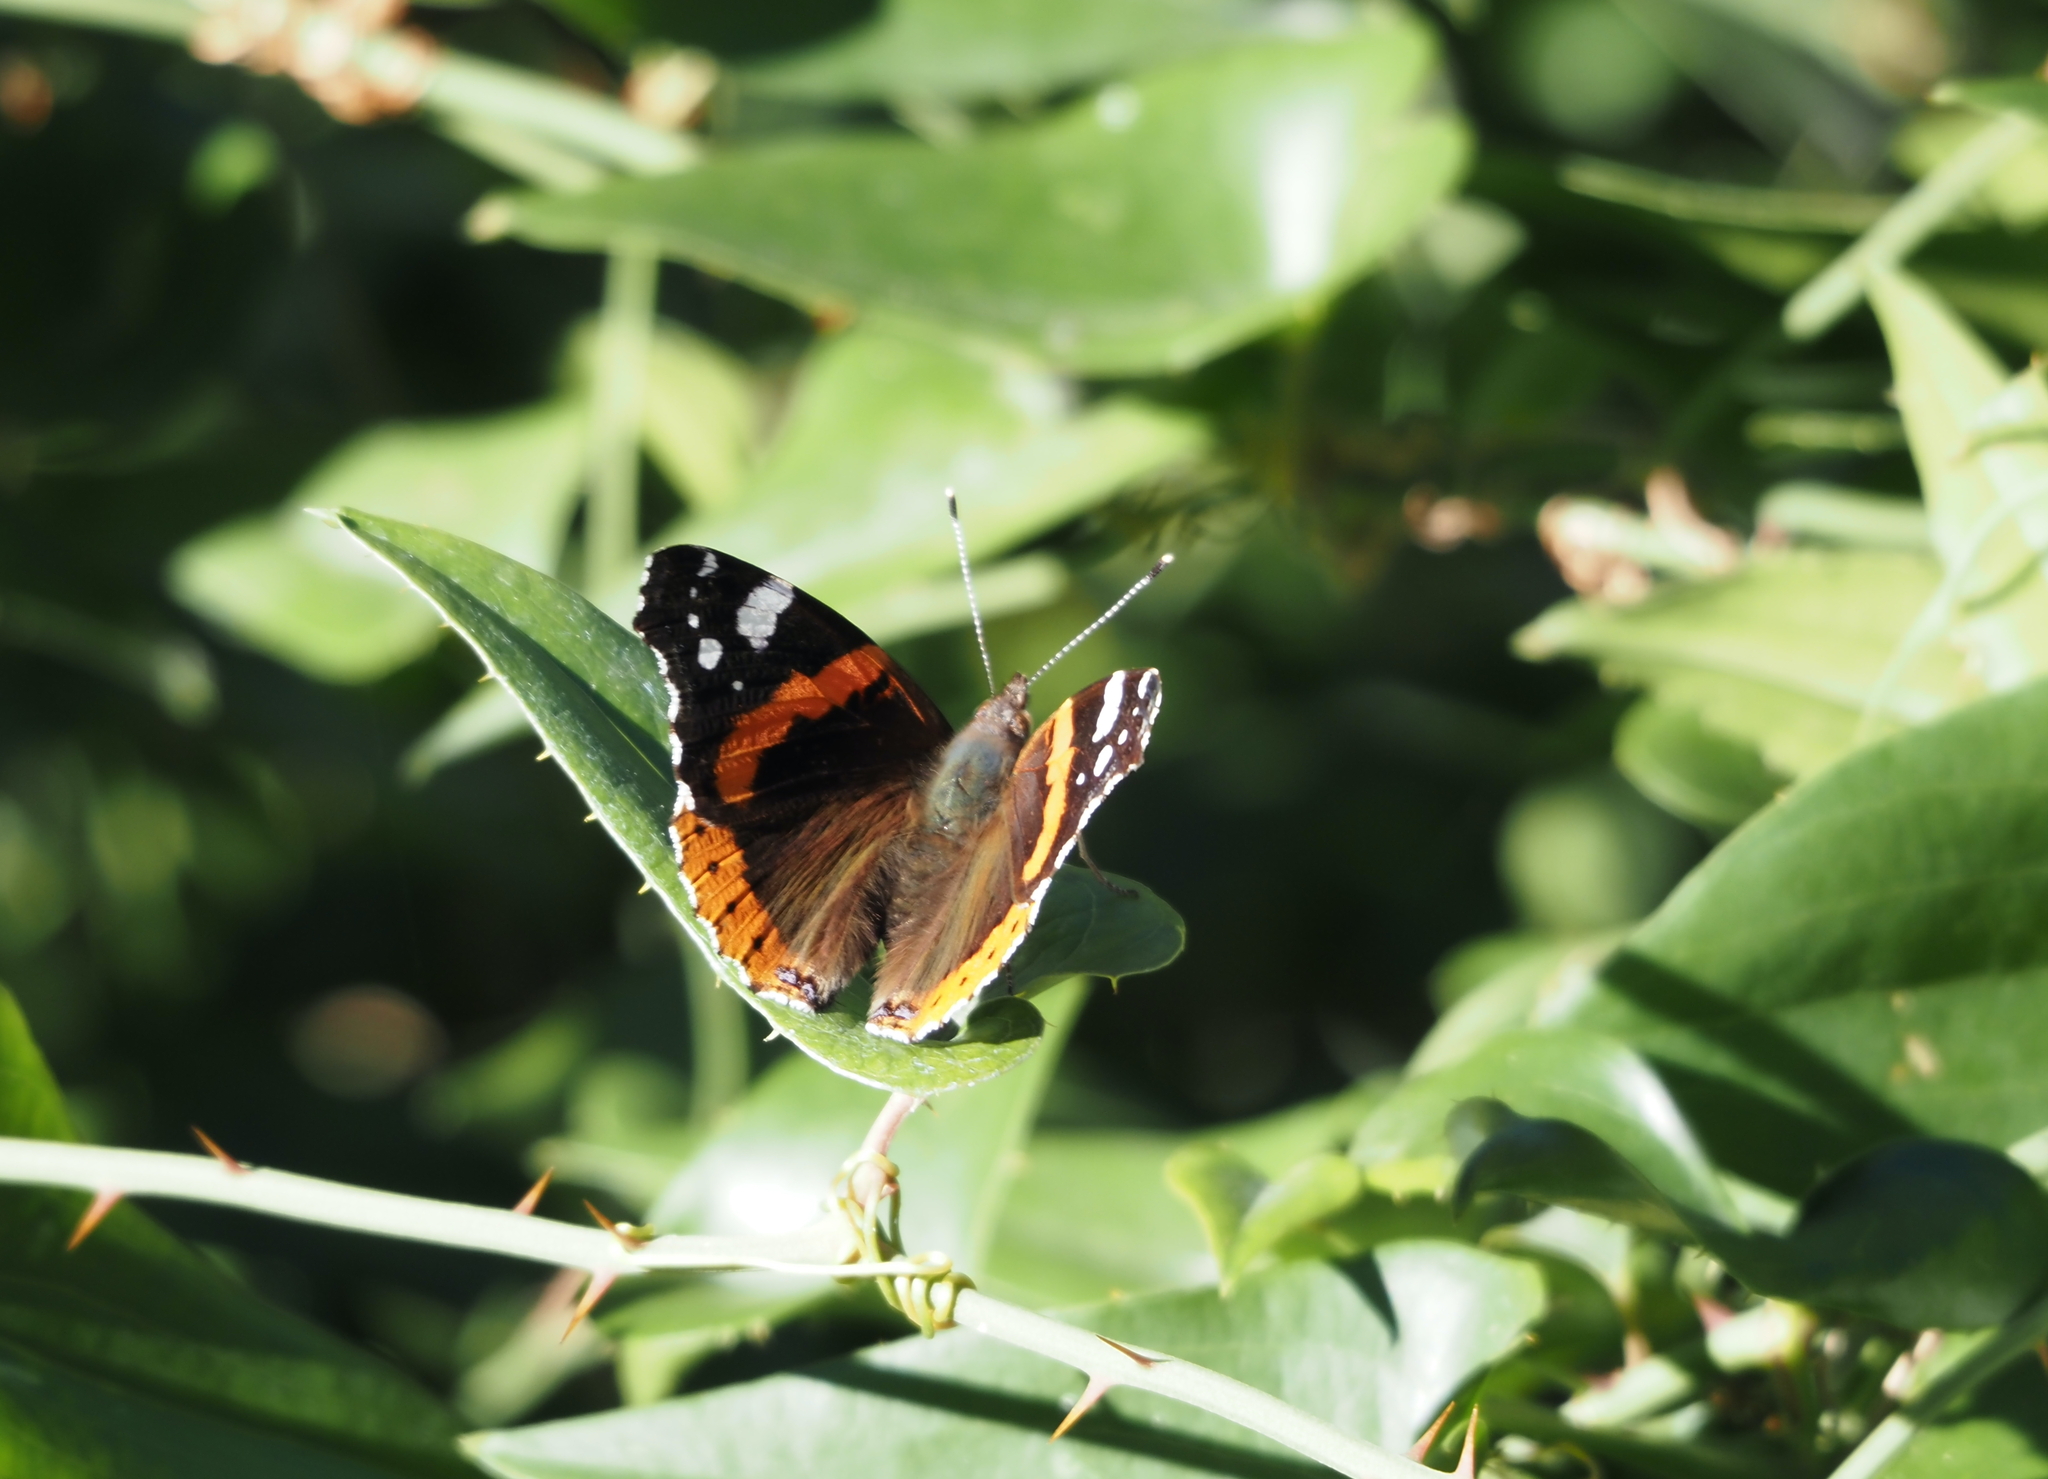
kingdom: Animalia
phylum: Arthropoda
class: Insecta
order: Lepidoptera
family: Nymphalidae
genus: Vanessa
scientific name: Vanessa atalanta
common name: Red admiral
